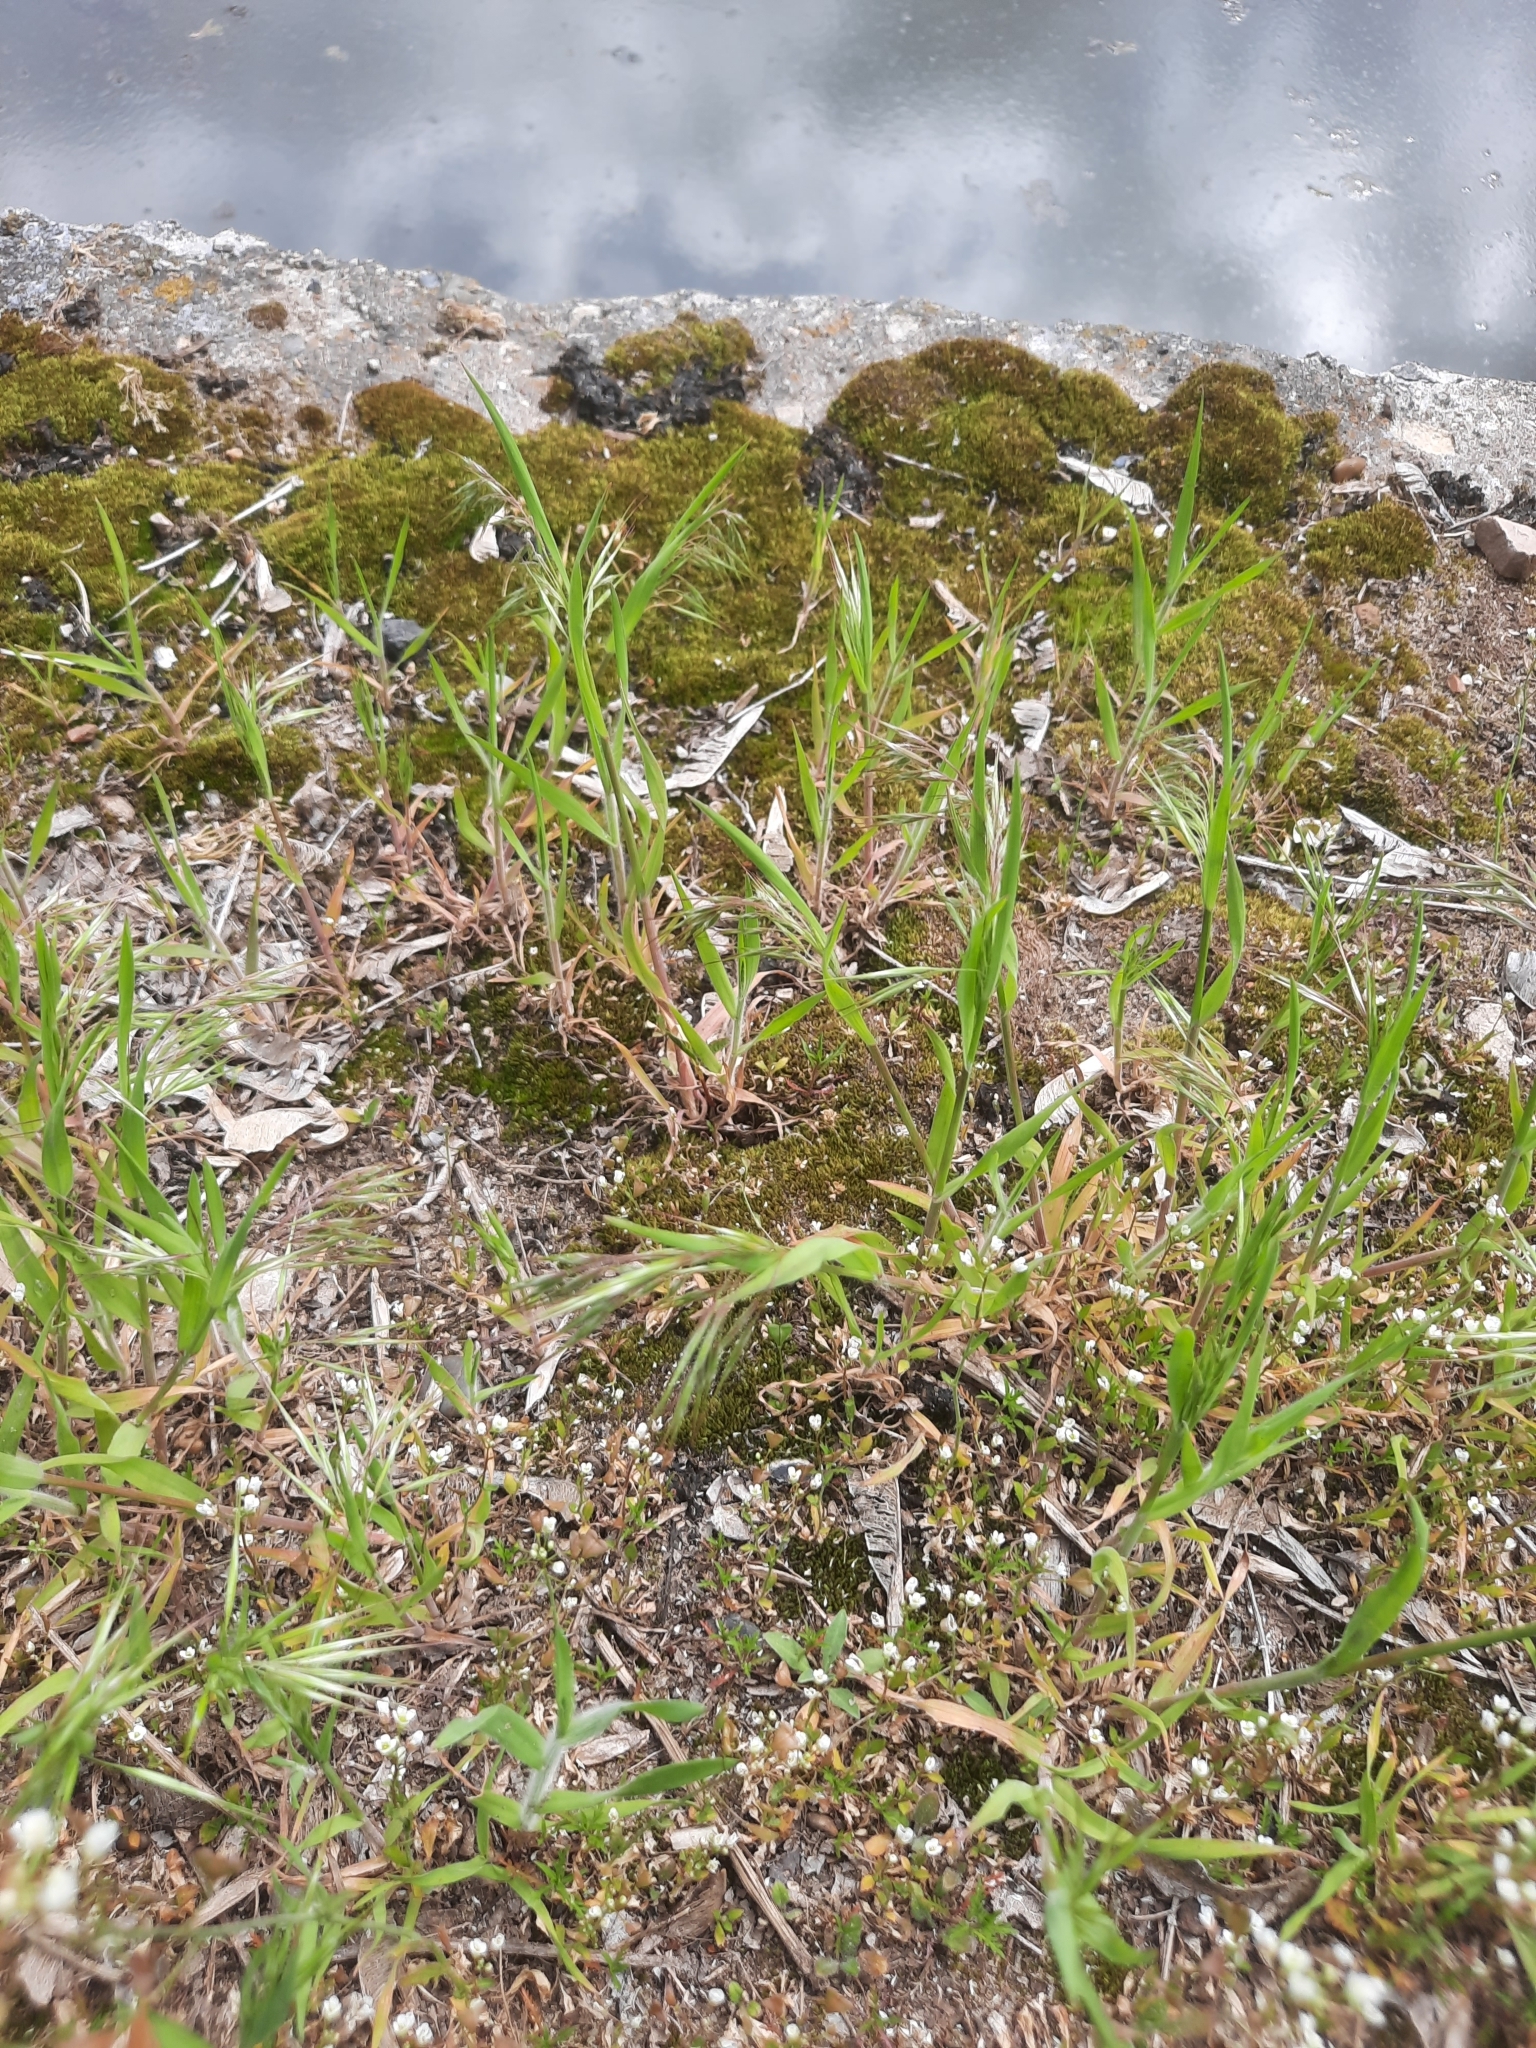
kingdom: Plantae
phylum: Tracheophyta
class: Liliopsida
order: Poales
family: Poaceae
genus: Bromus
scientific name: Bromus tectorum
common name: Cheatgrass
